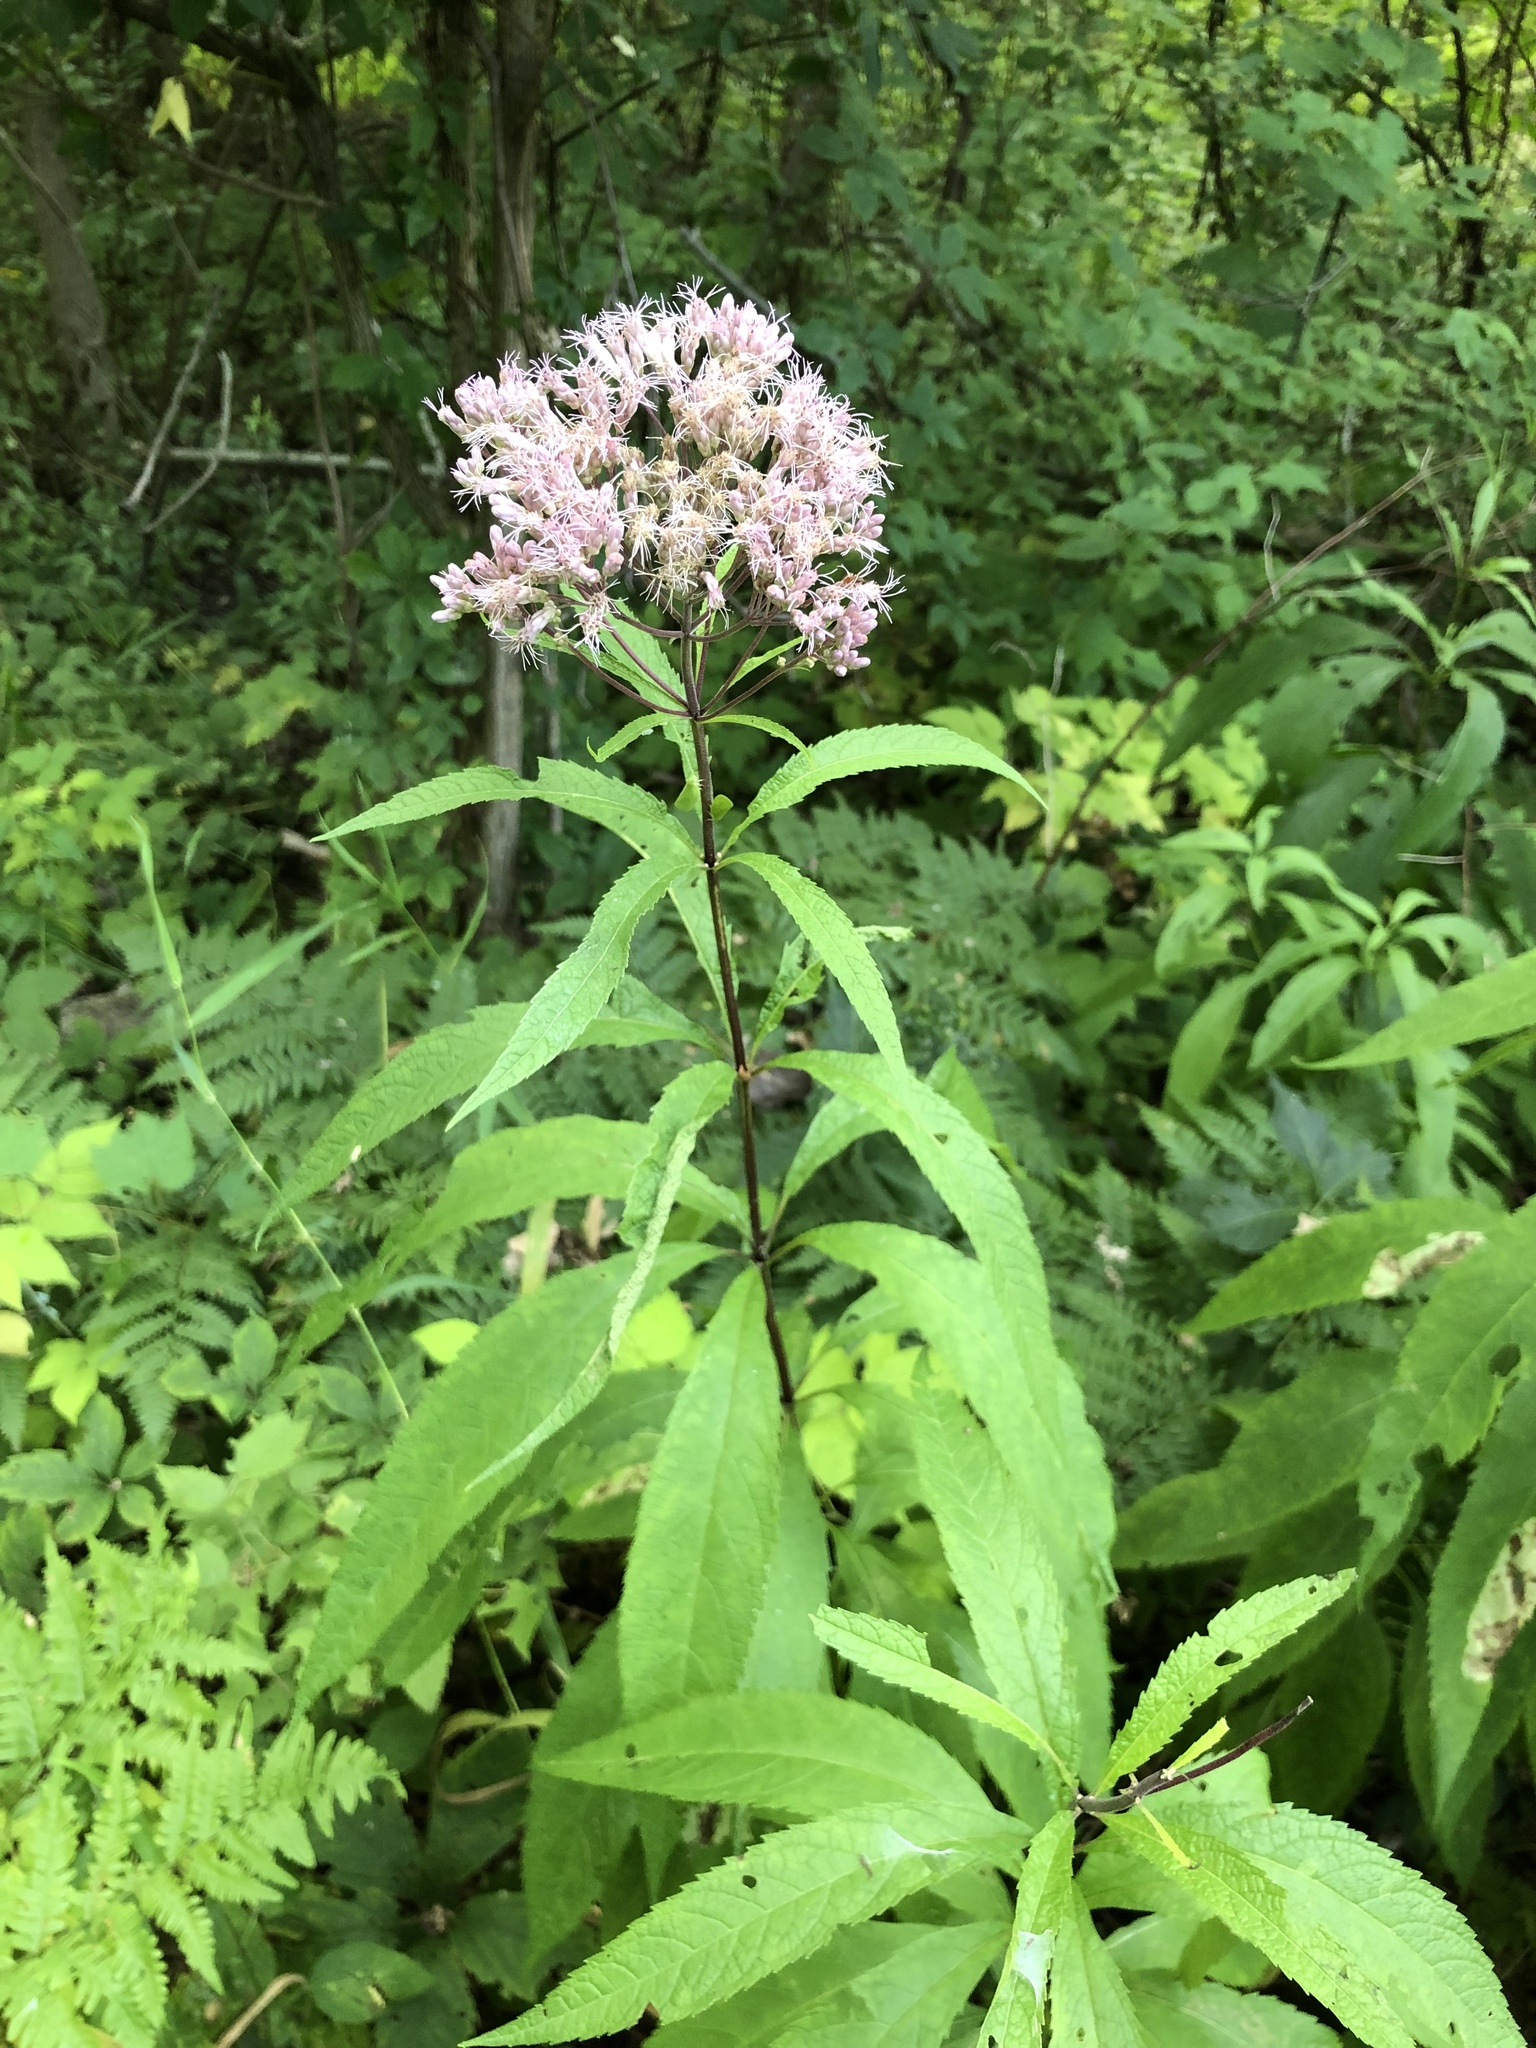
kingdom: Plantae
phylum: Tracheophyta
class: Magnoliopsida
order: Asterales
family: Asteraceae
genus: Eutrochium
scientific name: Eutrochium maculatum
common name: Spotted joe pye weed
